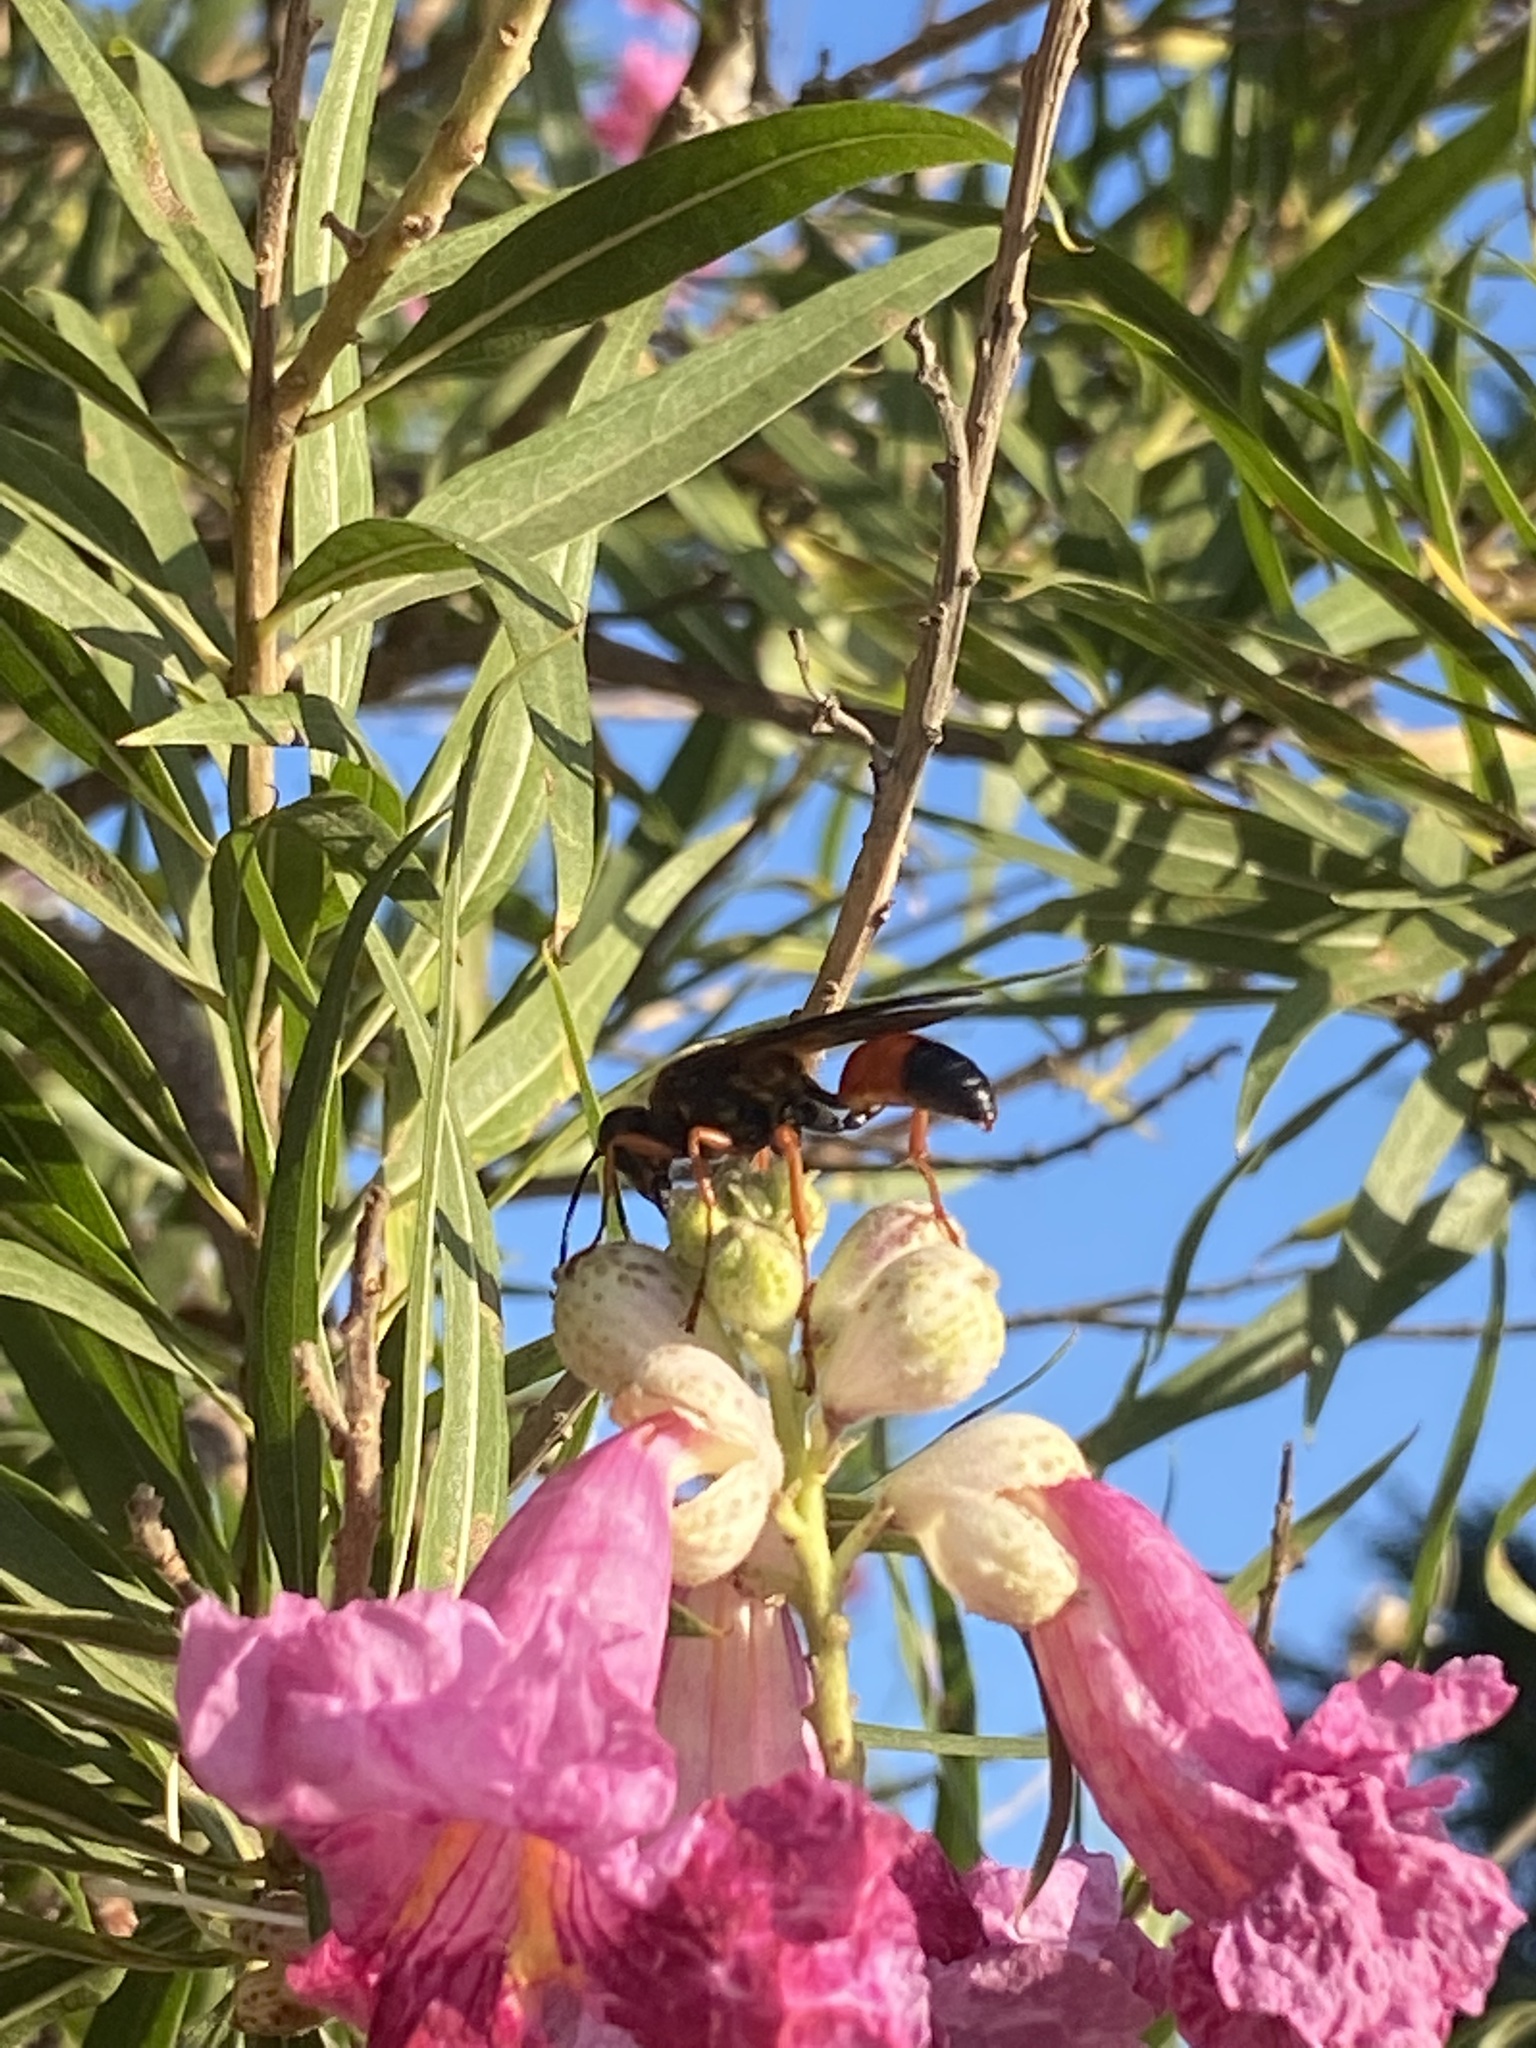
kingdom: Animalia
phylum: Arthropoda
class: Insecta
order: Hymenoptera
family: Sphecidae
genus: Sphex
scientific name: Sphex ichneumoneus
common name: Great golden digger wasp
